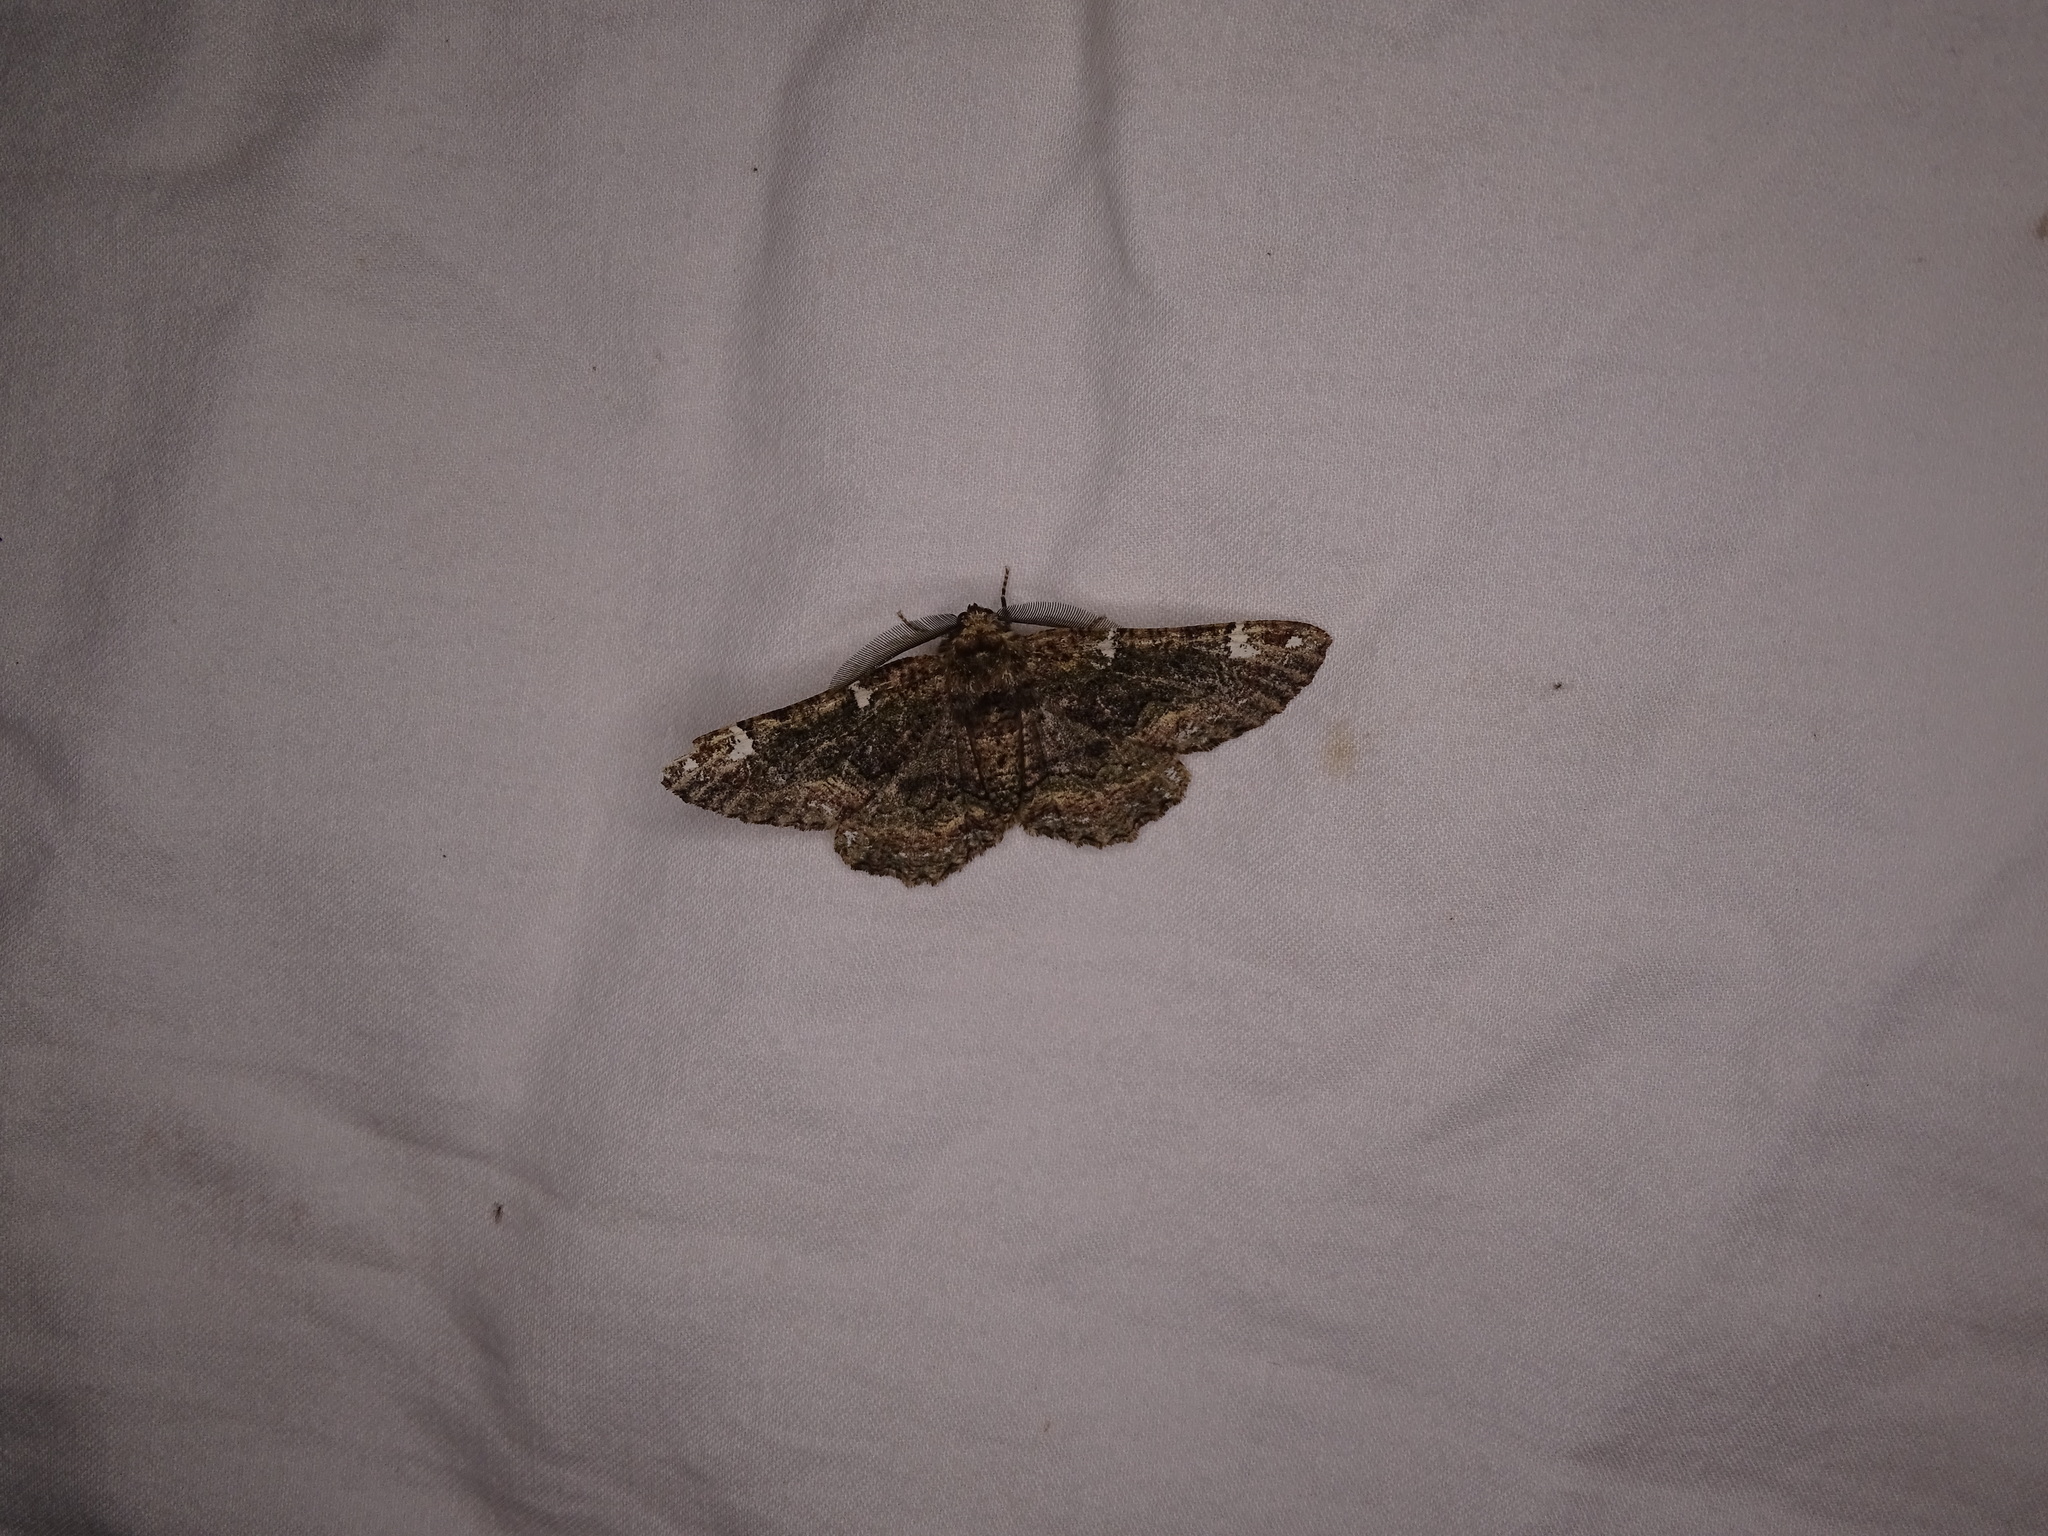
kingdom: Animalia
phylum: Arthropoda
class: Insecta
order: Lepidoptera
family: Geometridae
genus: Phaeoura
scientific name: Phaeoura quernaria
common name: Oak beauty
